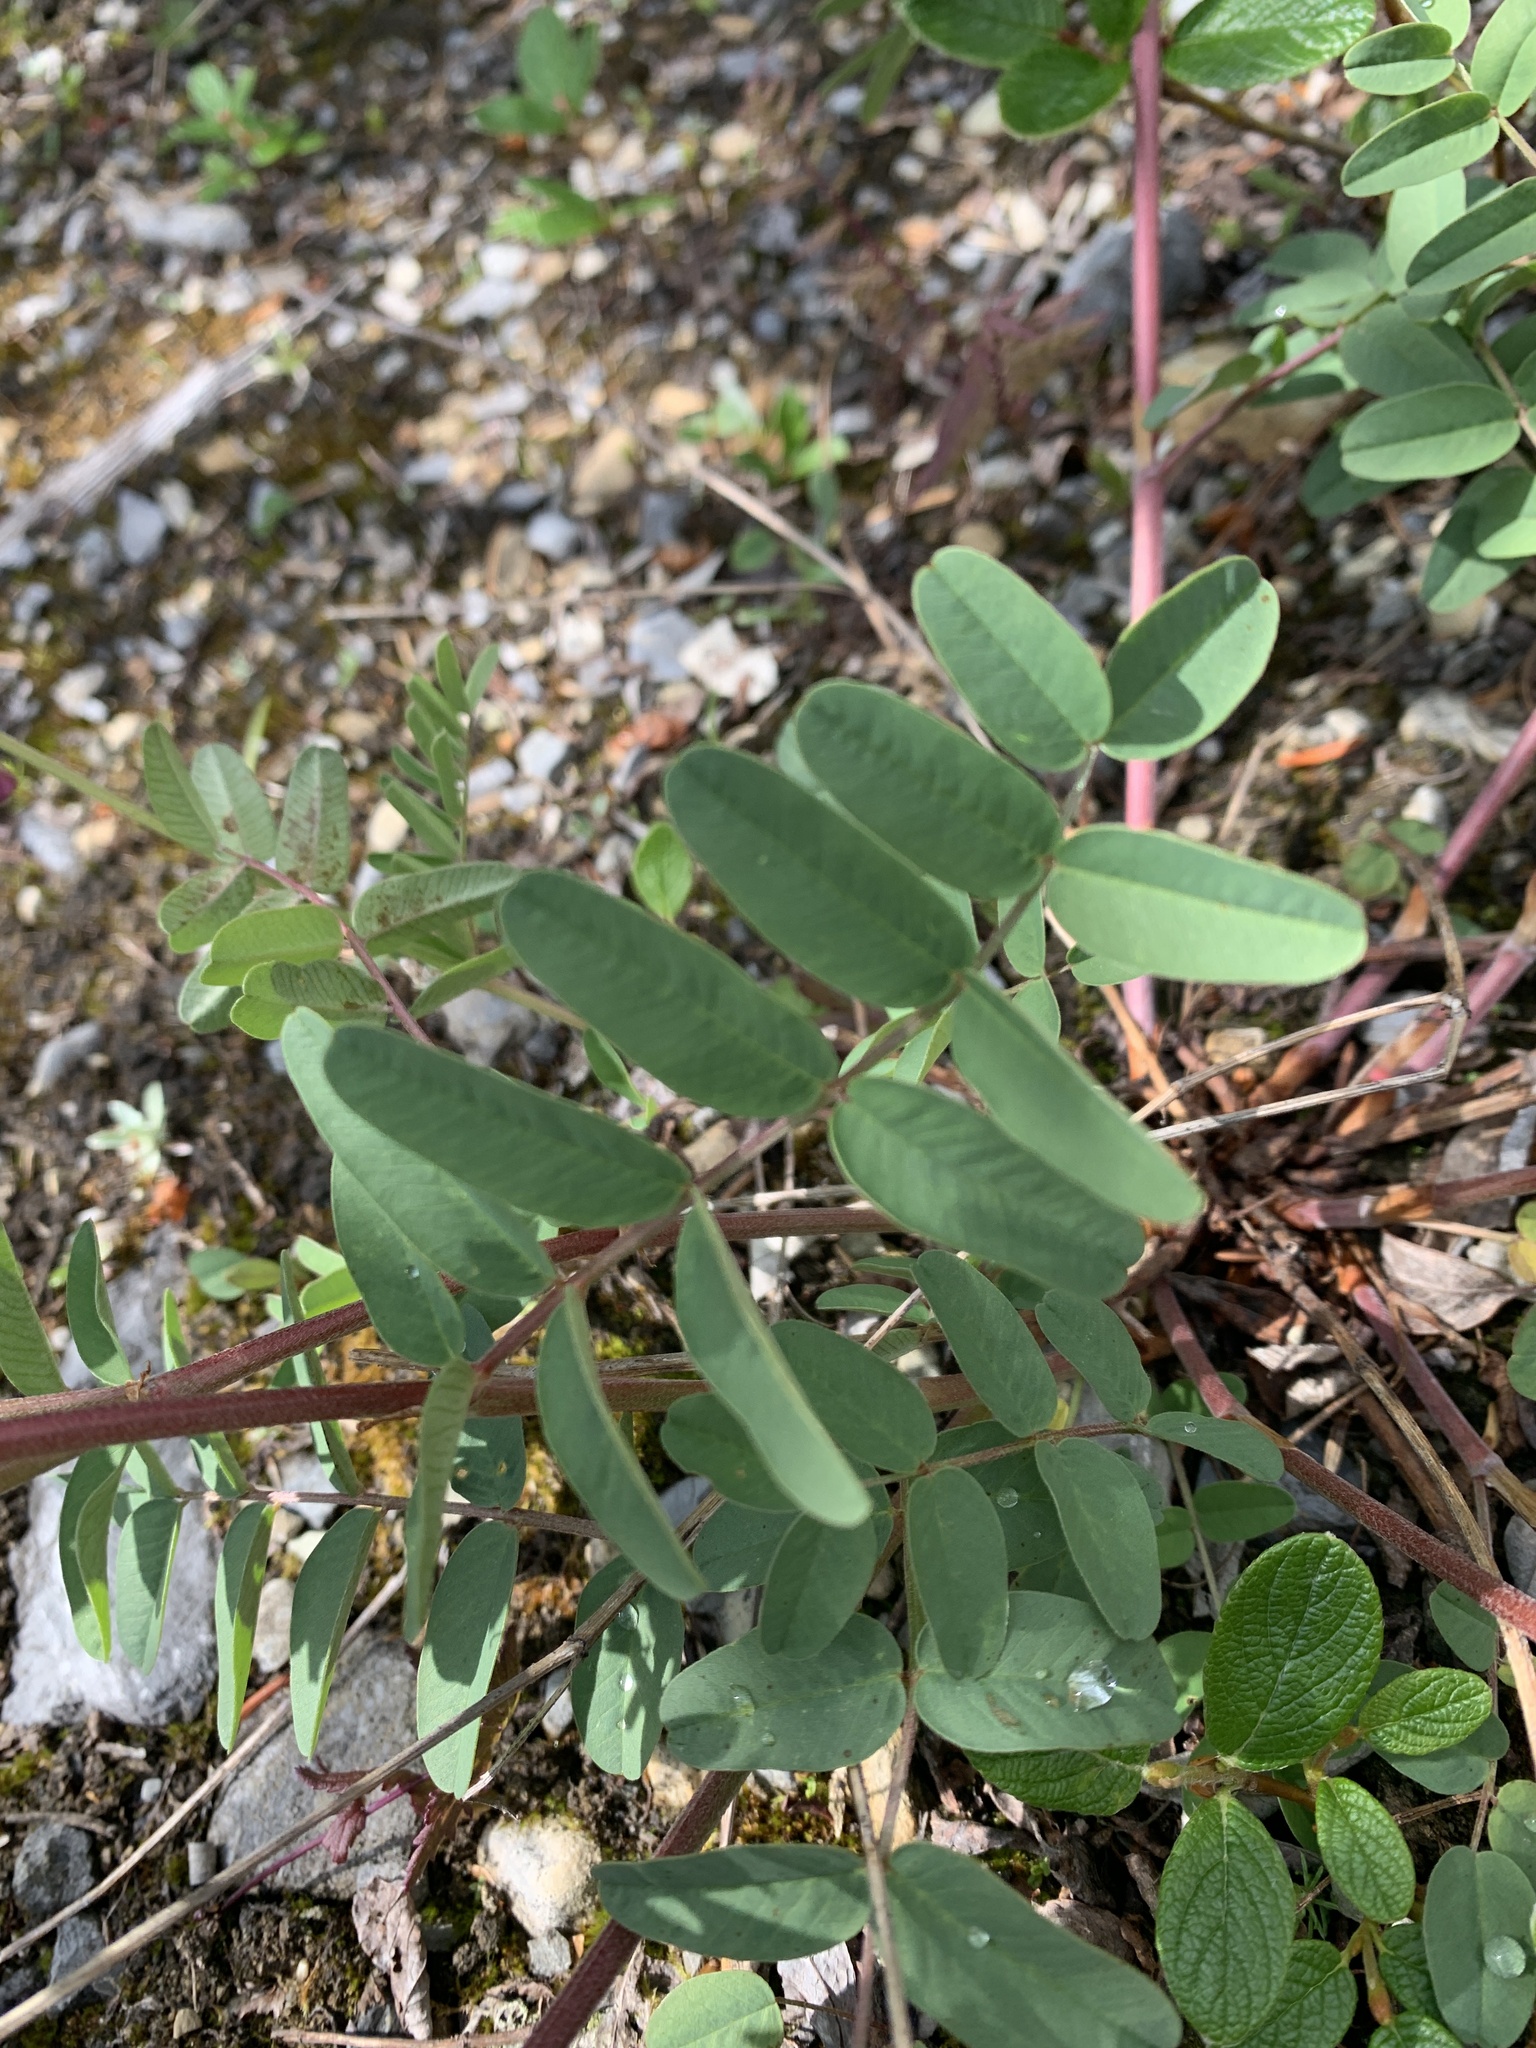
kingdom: Plantae
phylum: Tracheophyta
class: Magnoliopsida
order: Fabales
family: Fabaceae
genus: Hedysarum
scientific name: Hedysarum alpinum
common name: Alpine sweet-vetch
